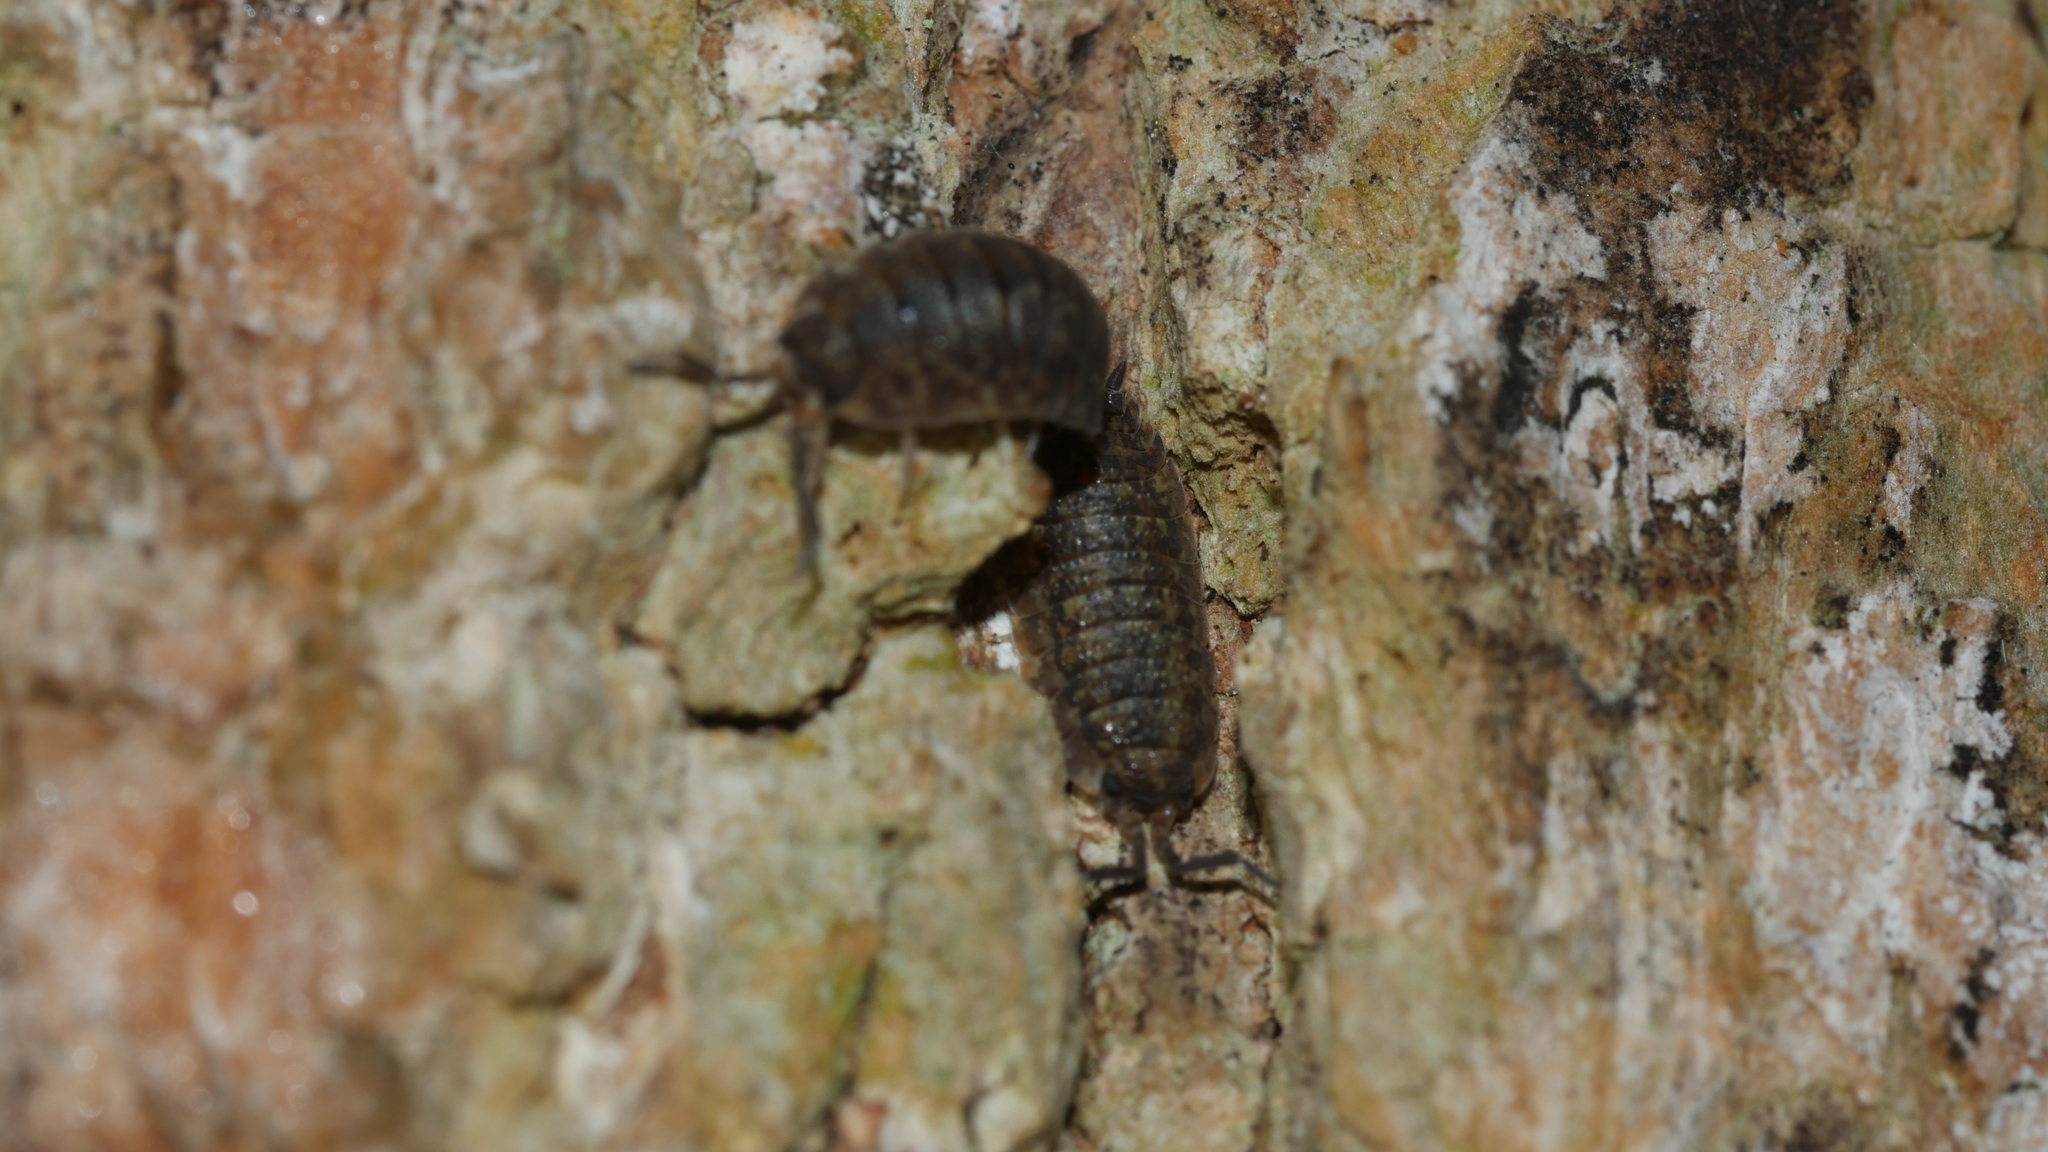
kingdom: Animalia
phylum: Arthropoda
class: Malacostraca
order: Isopoda
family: Porcellionidae
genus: Porcellio
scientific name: Porcellio scaber
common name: Common rough woodlouse
